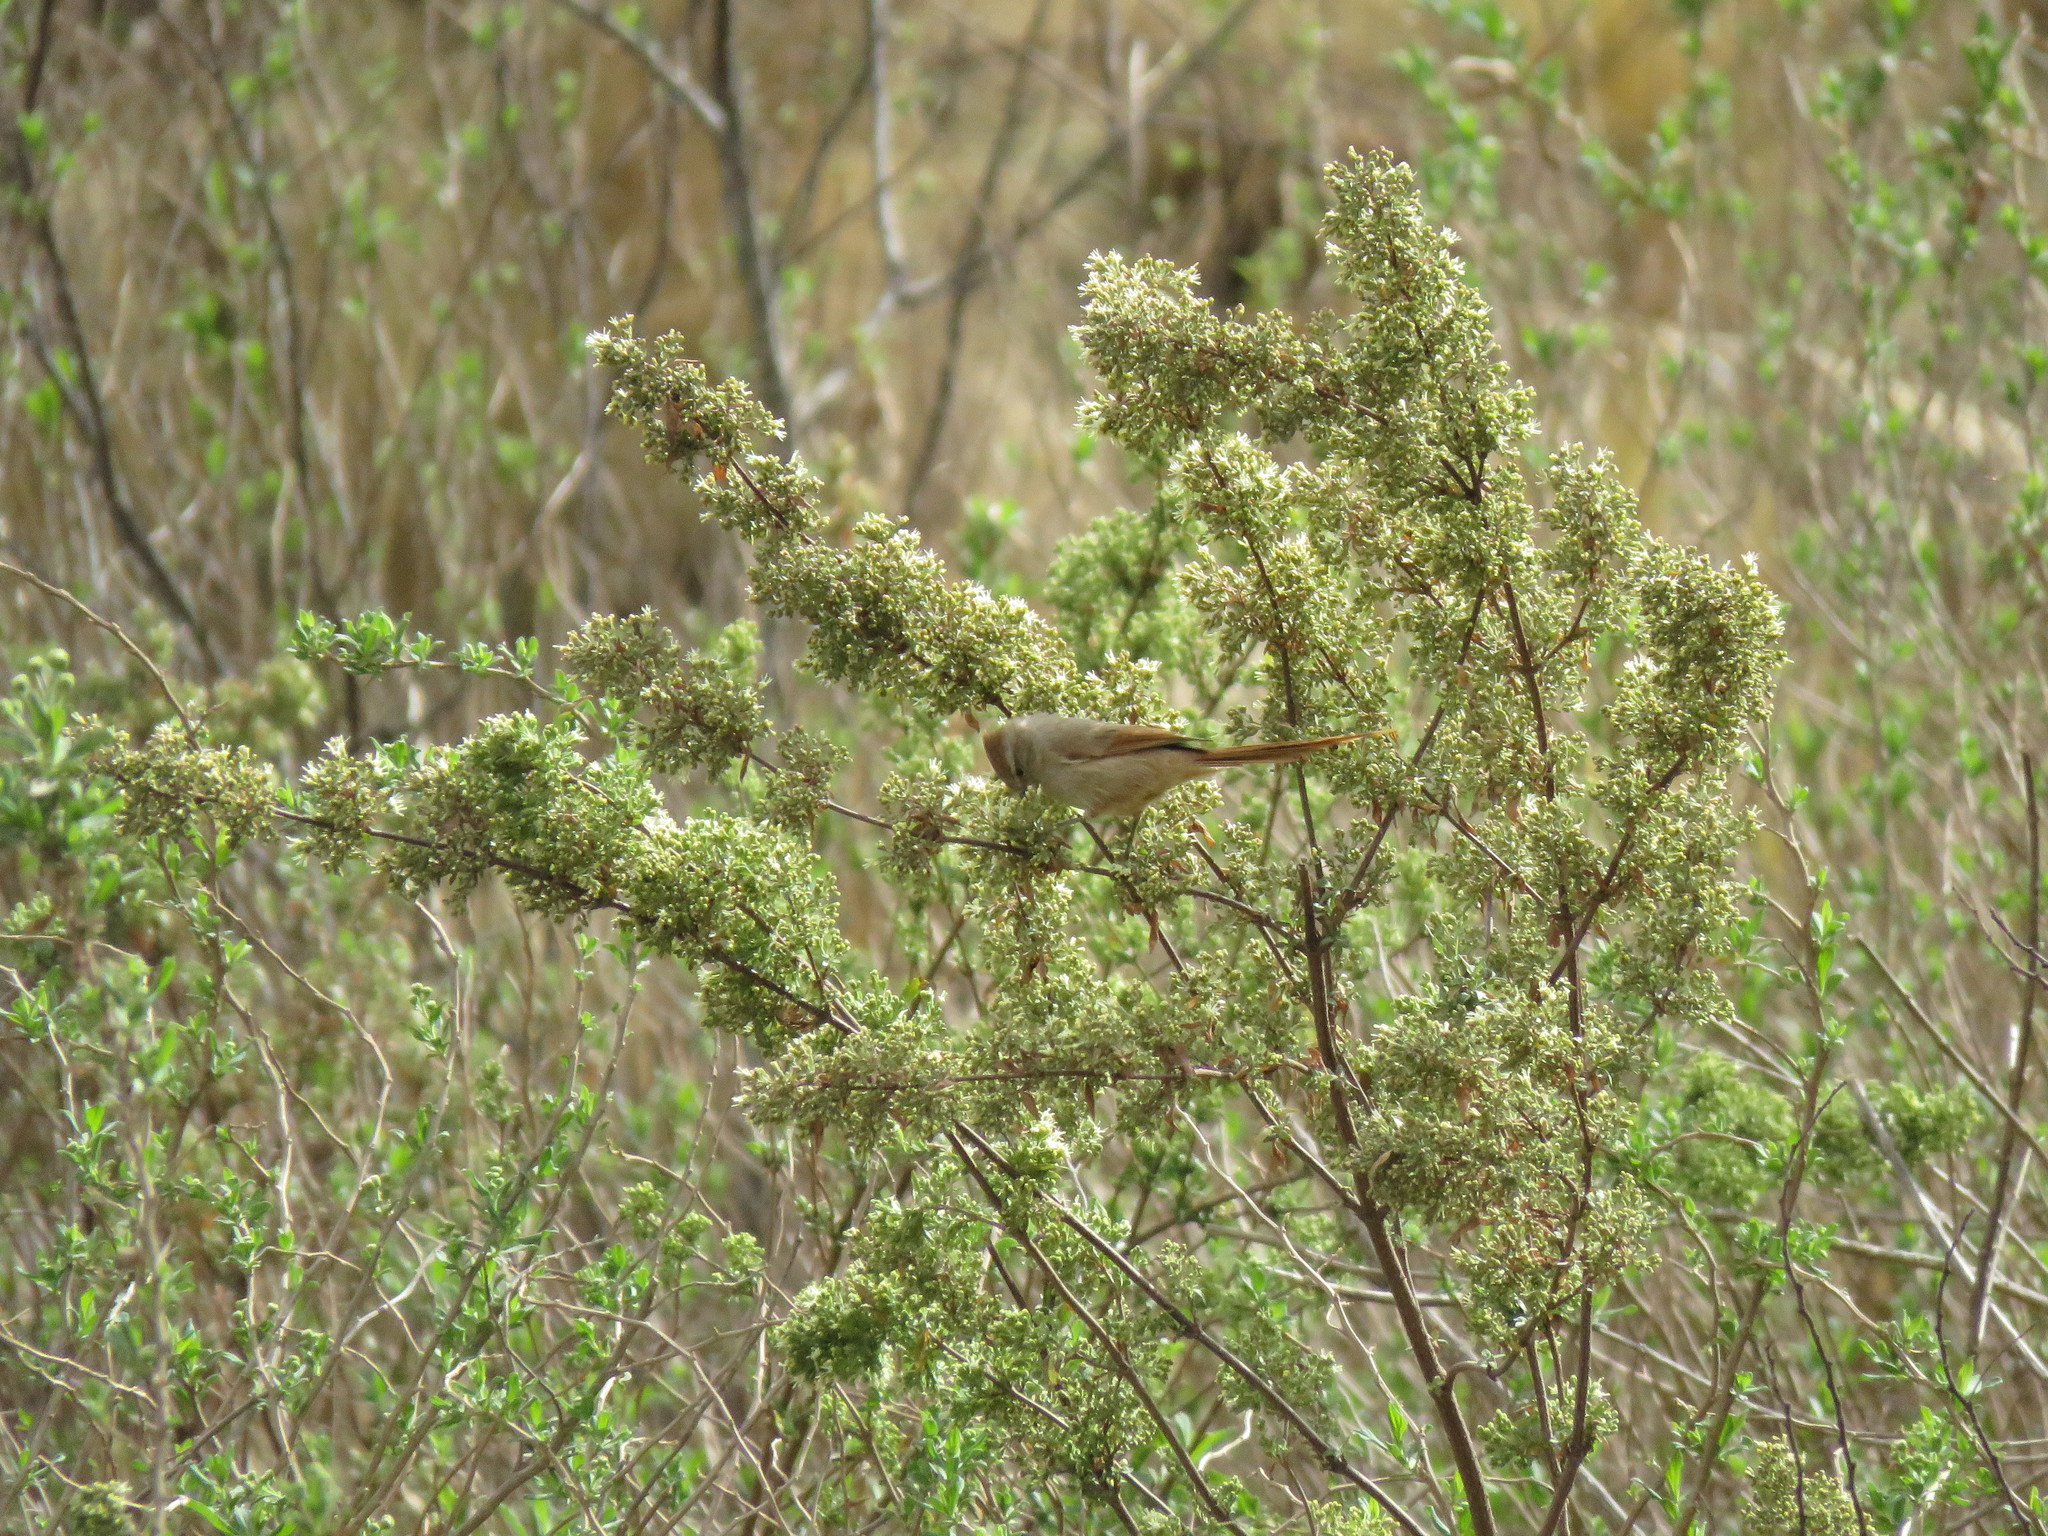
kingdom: Animalia
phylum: Chordata
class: Aves
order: Passeriformes
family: Furnariidae
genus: Leptasthenura
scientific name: Leptasthenura fuliginiceps
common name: Brown-capped tit-spinetail
